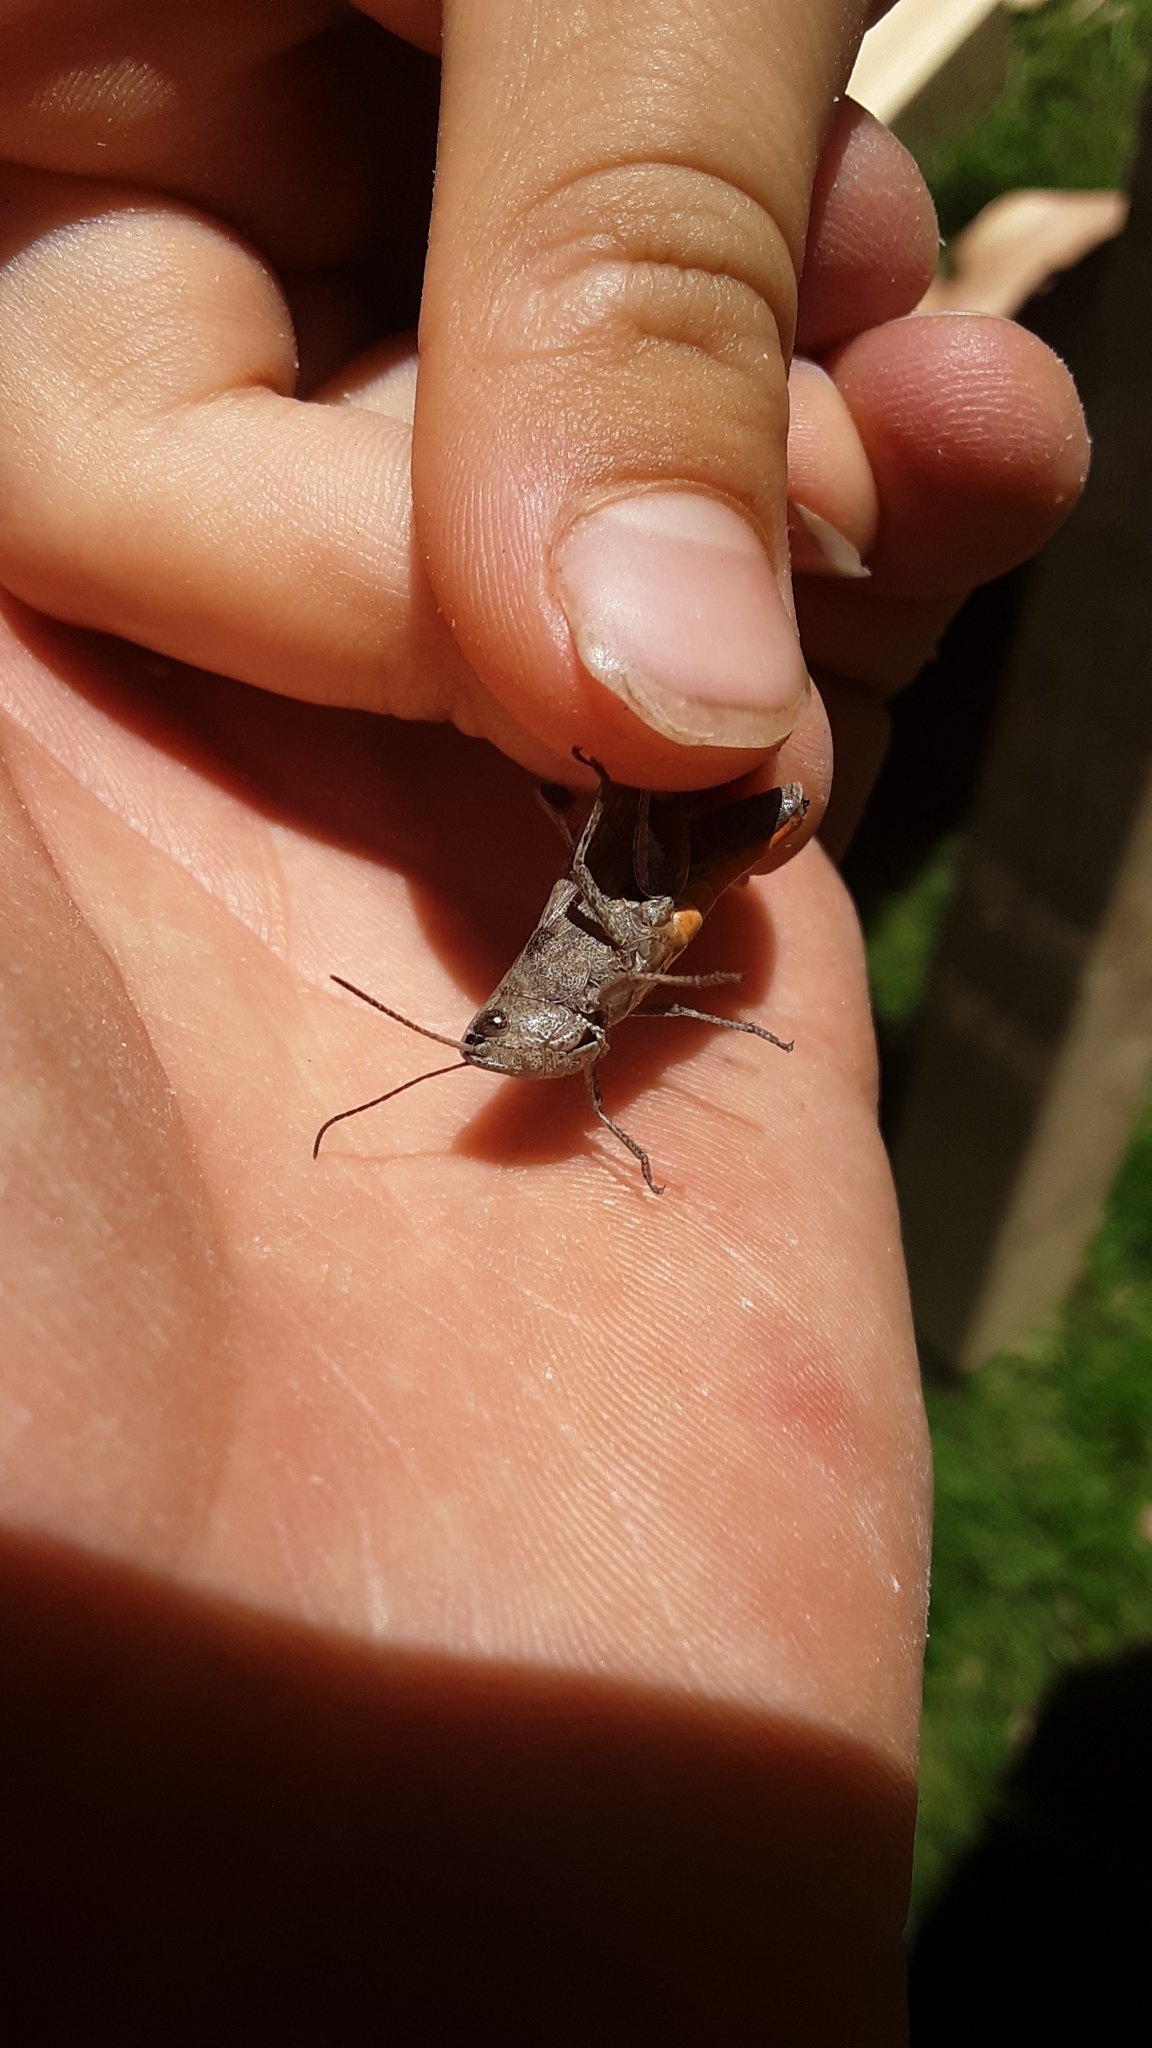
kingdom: Animalia
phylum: Arthropoda
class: Insecta
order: Orthoptera
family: Acrididae
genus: Chloealtis
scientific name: Chloealtis conspersa
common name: Sprinkled broad-winged grasshopper
